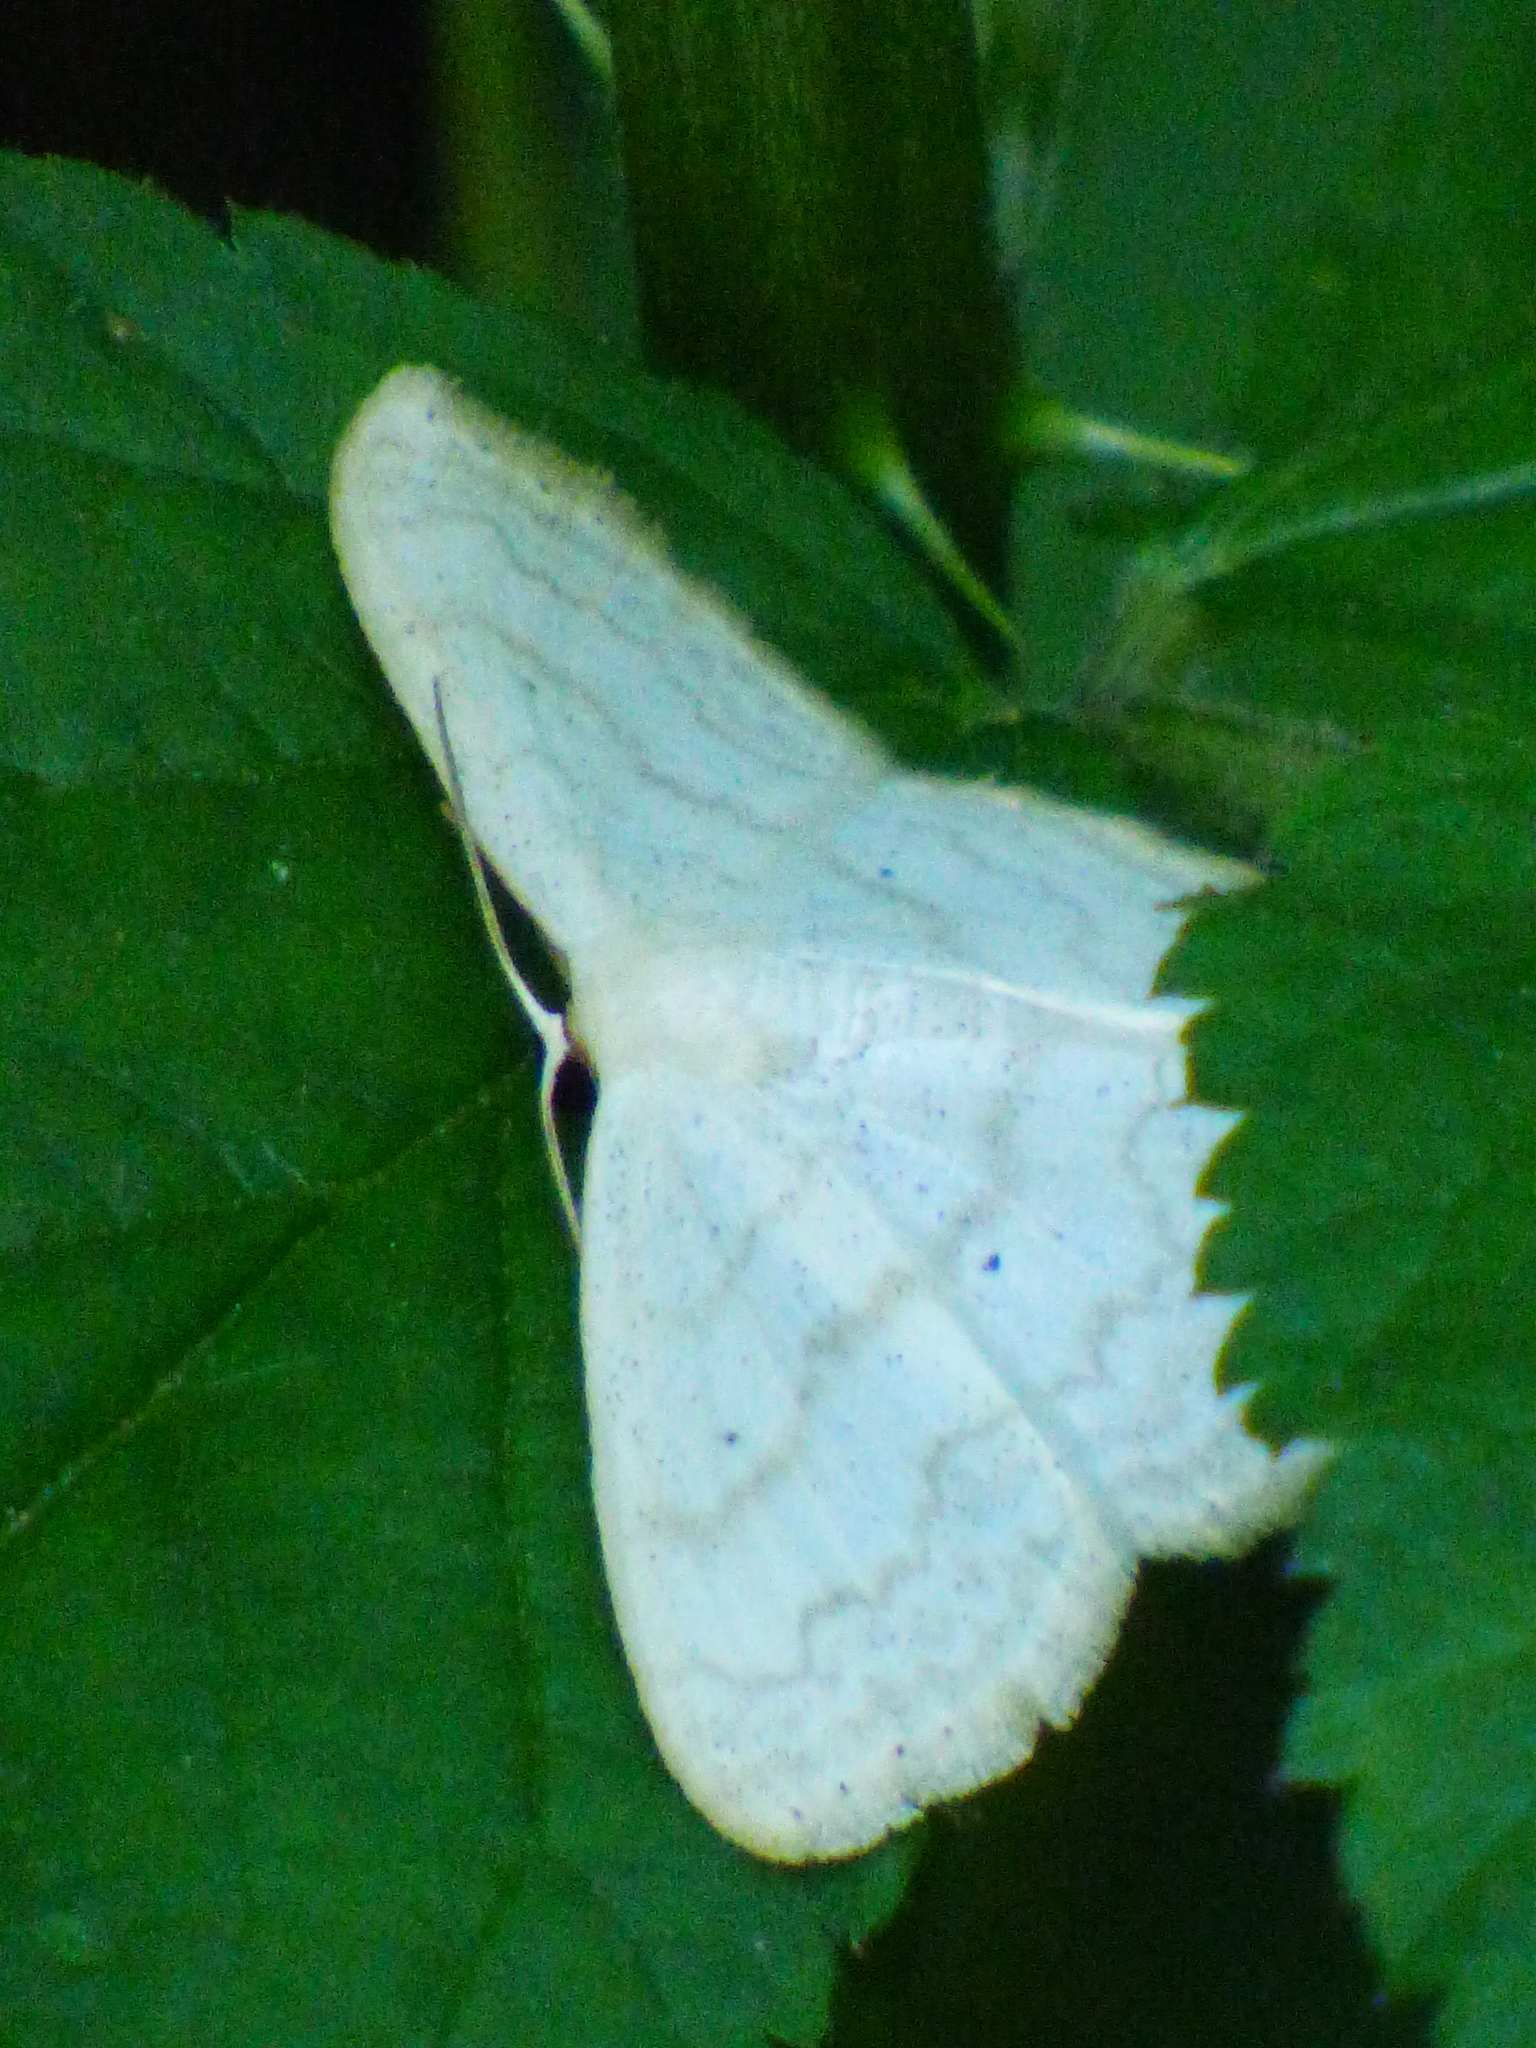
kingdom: Animalia
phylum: Arthropoda
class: Insecta
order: Lepidoptera
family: Geometridae
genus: Scopula
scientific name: Scopula limboundata
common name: Large lace border
